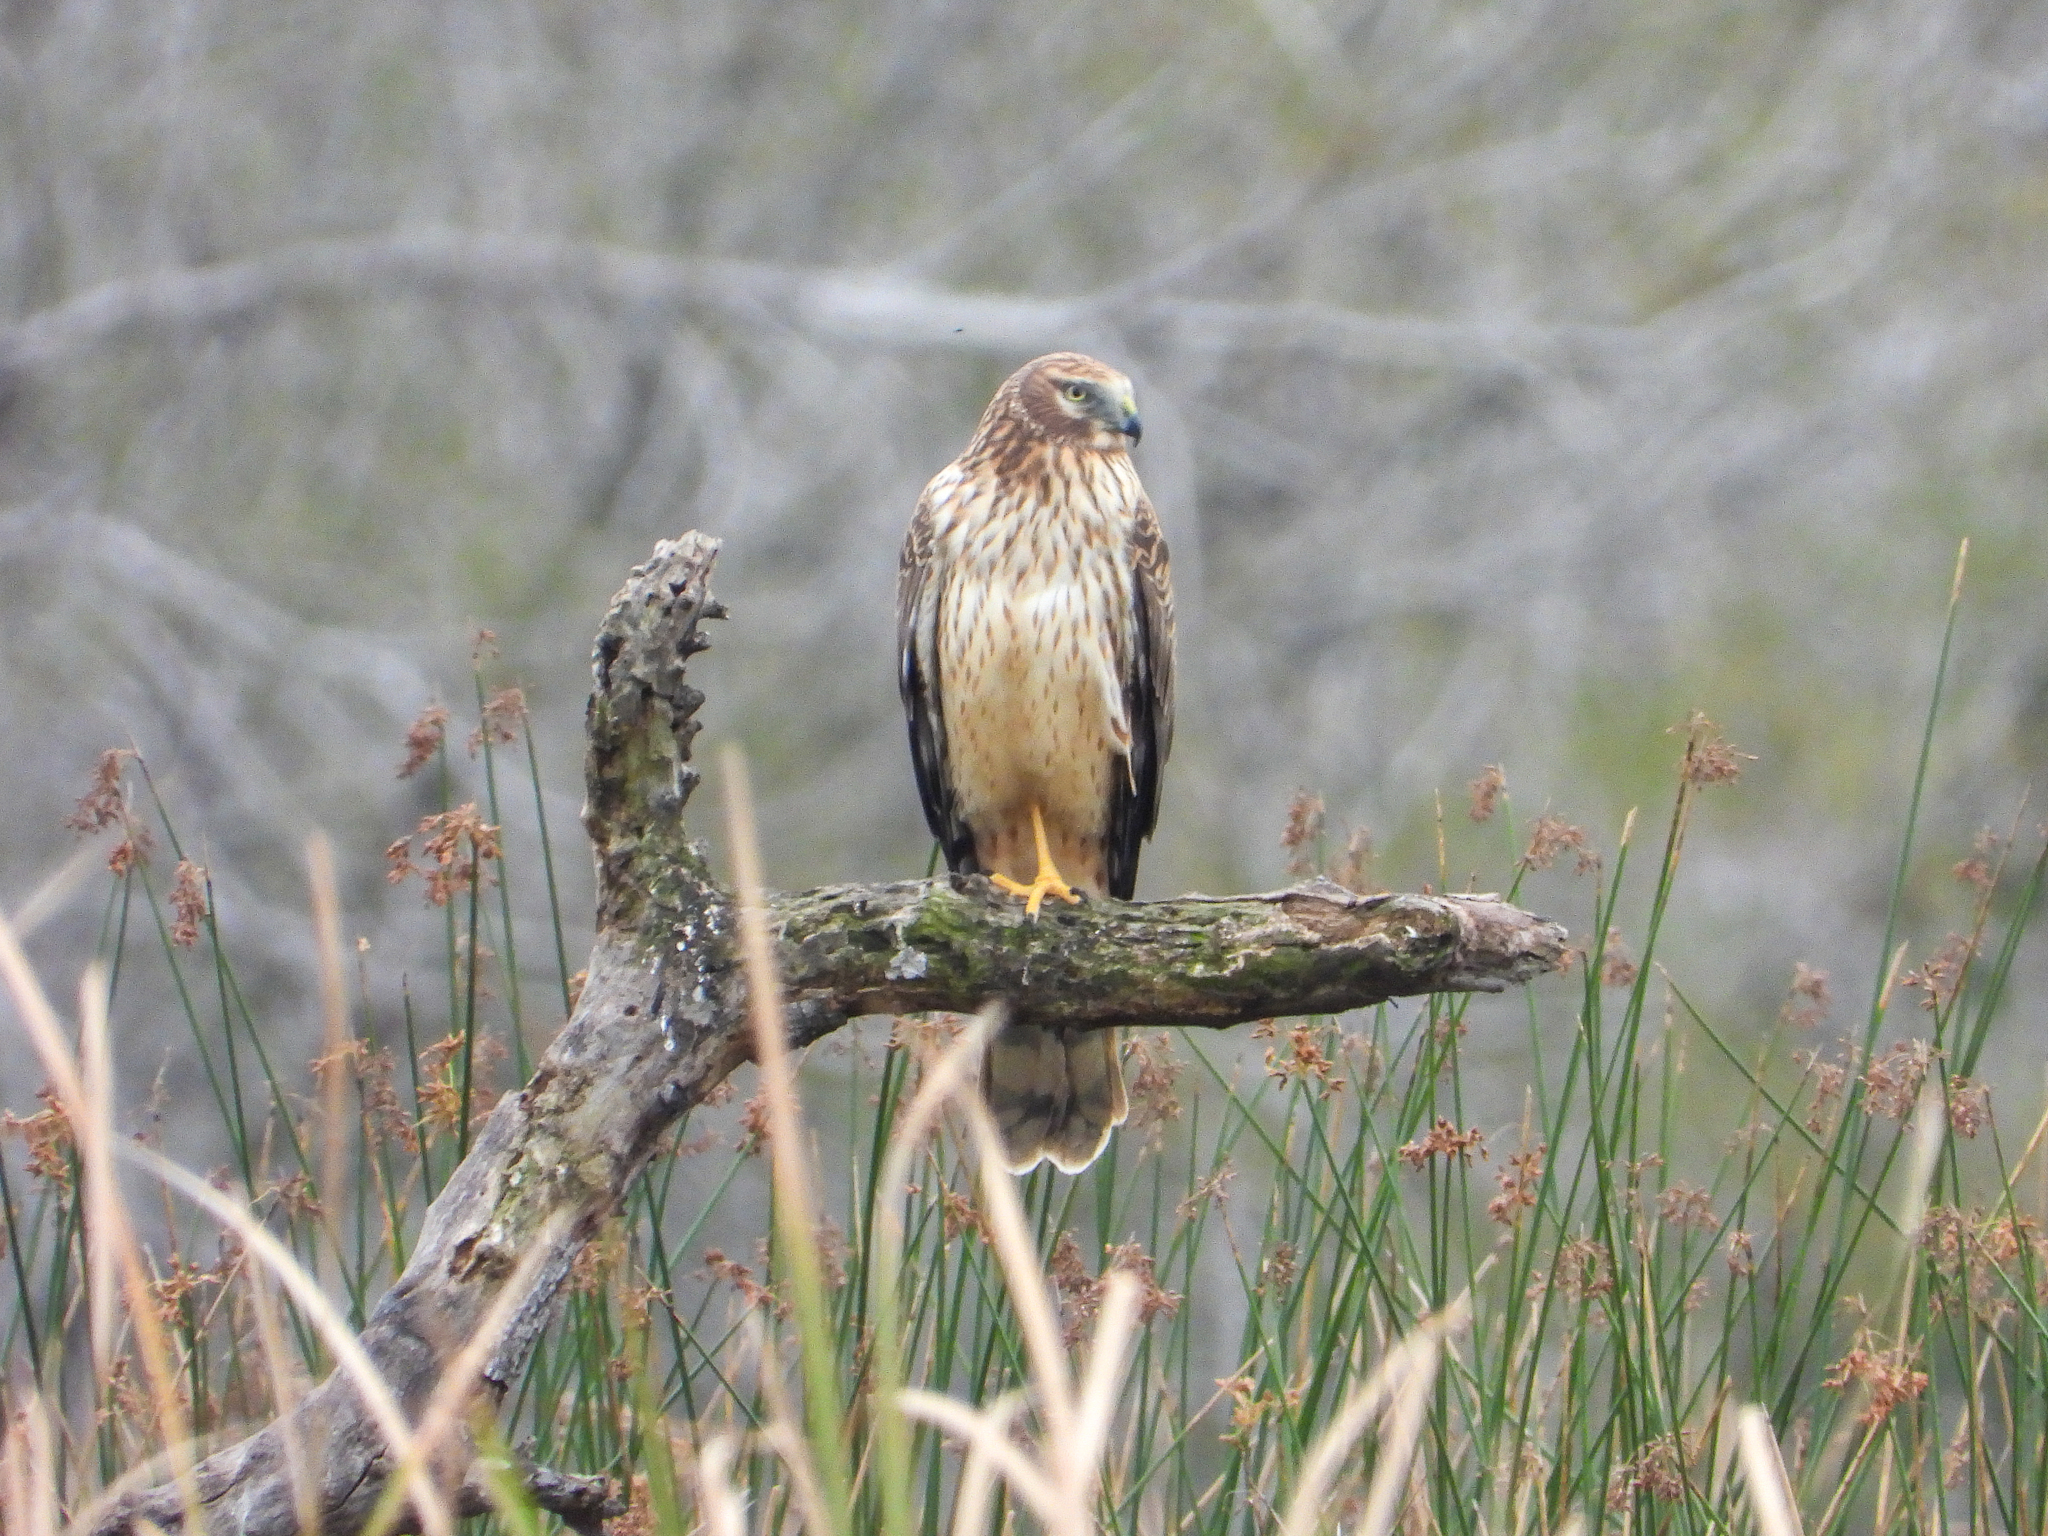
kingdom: Animalia
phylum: Chordata
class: Aves
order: Accipitriformes
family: Accipitridae
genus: Circus
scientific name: Circus cyaneus
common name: Hen harrier
